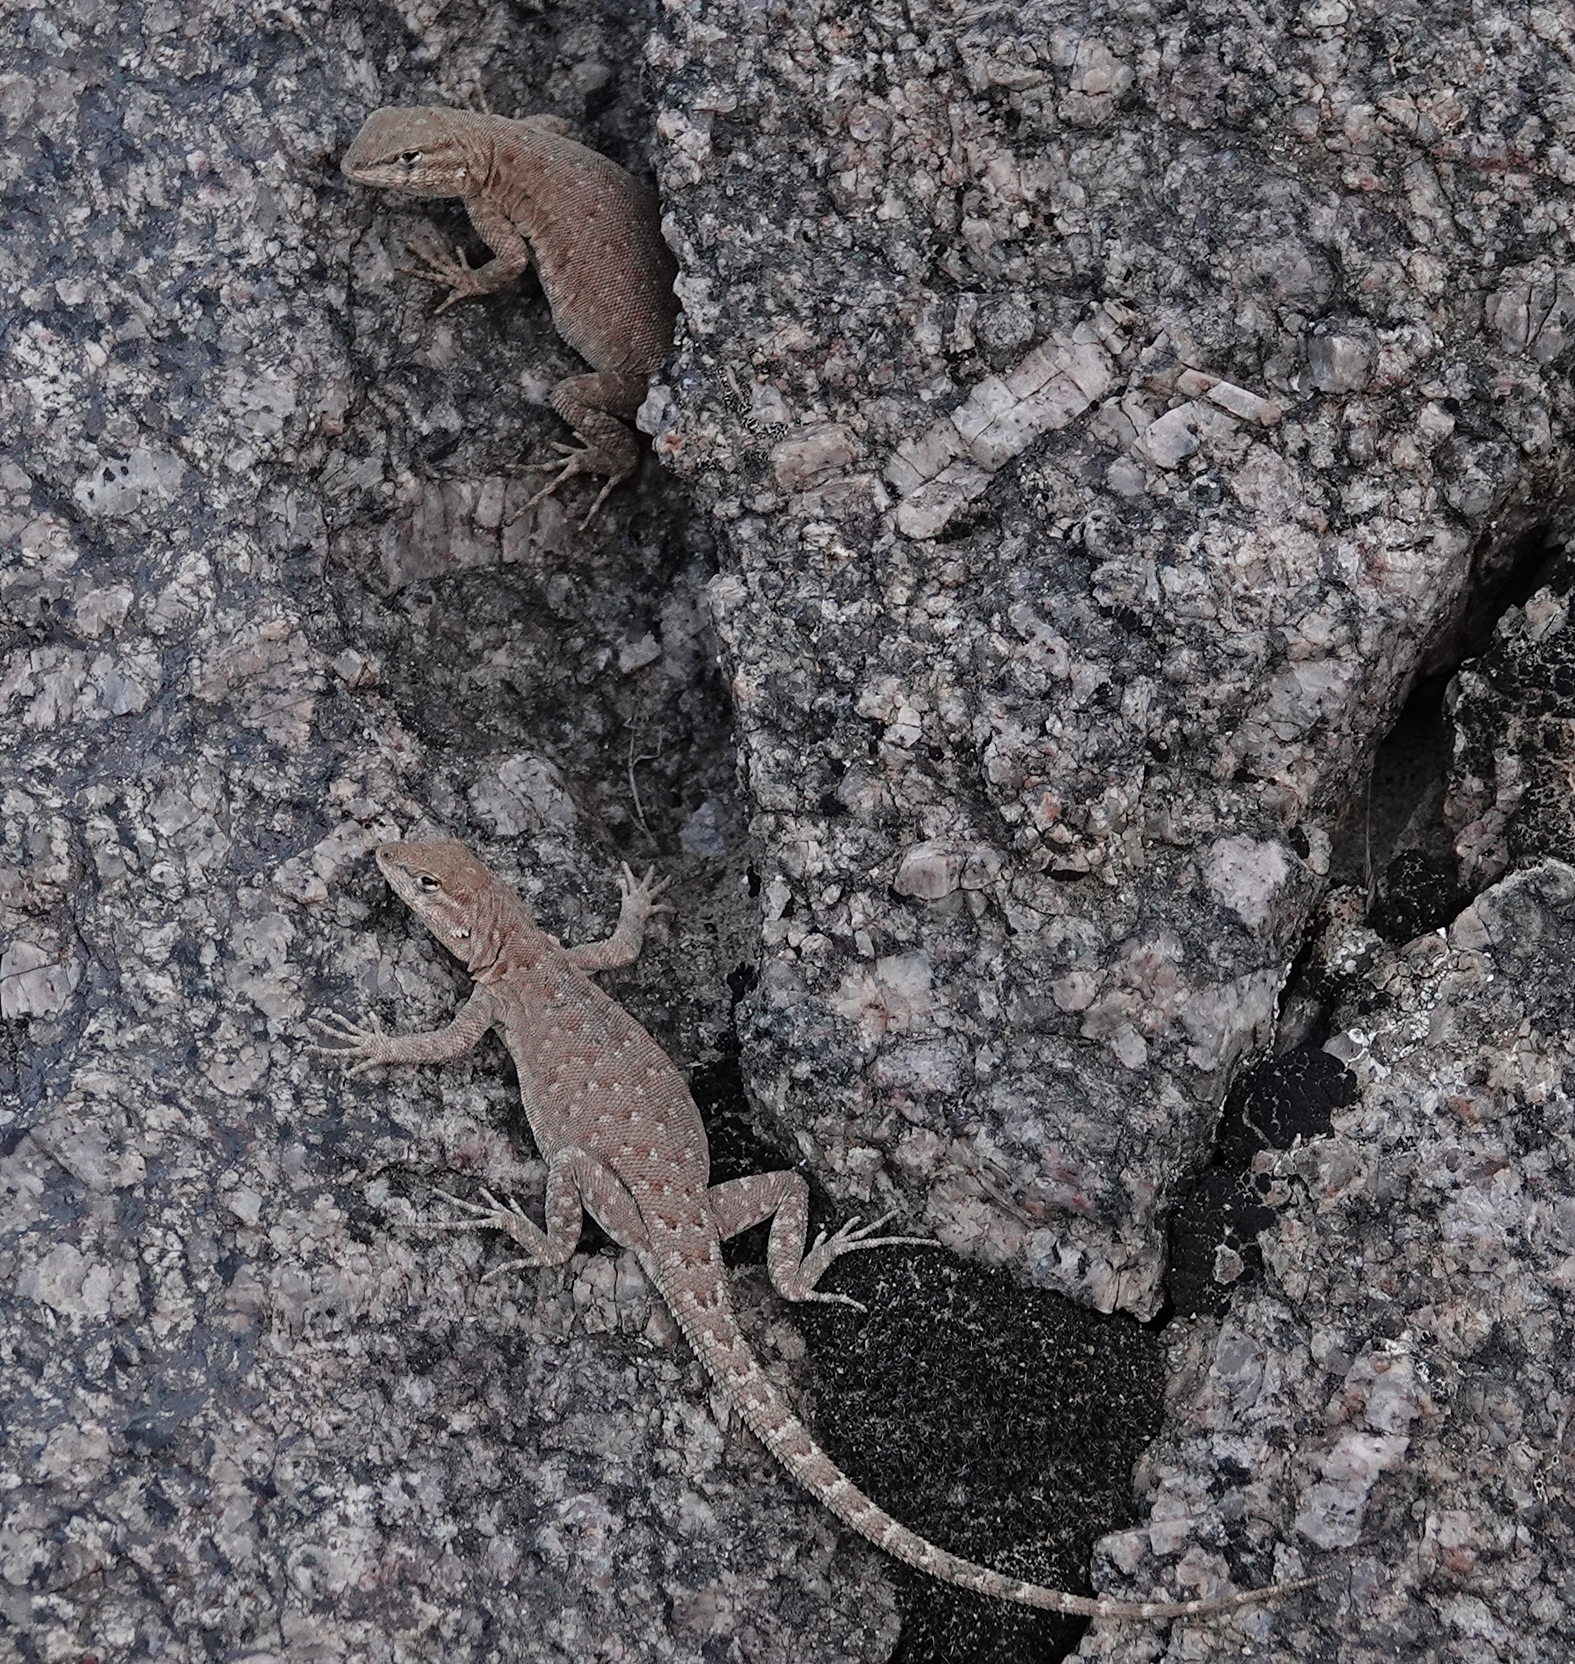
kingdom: Animalia
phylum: Chordata
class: Squamata
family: Phrynosomatidae
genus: Uta
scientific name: Uta stansburiana
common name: Side-blotched lizard
